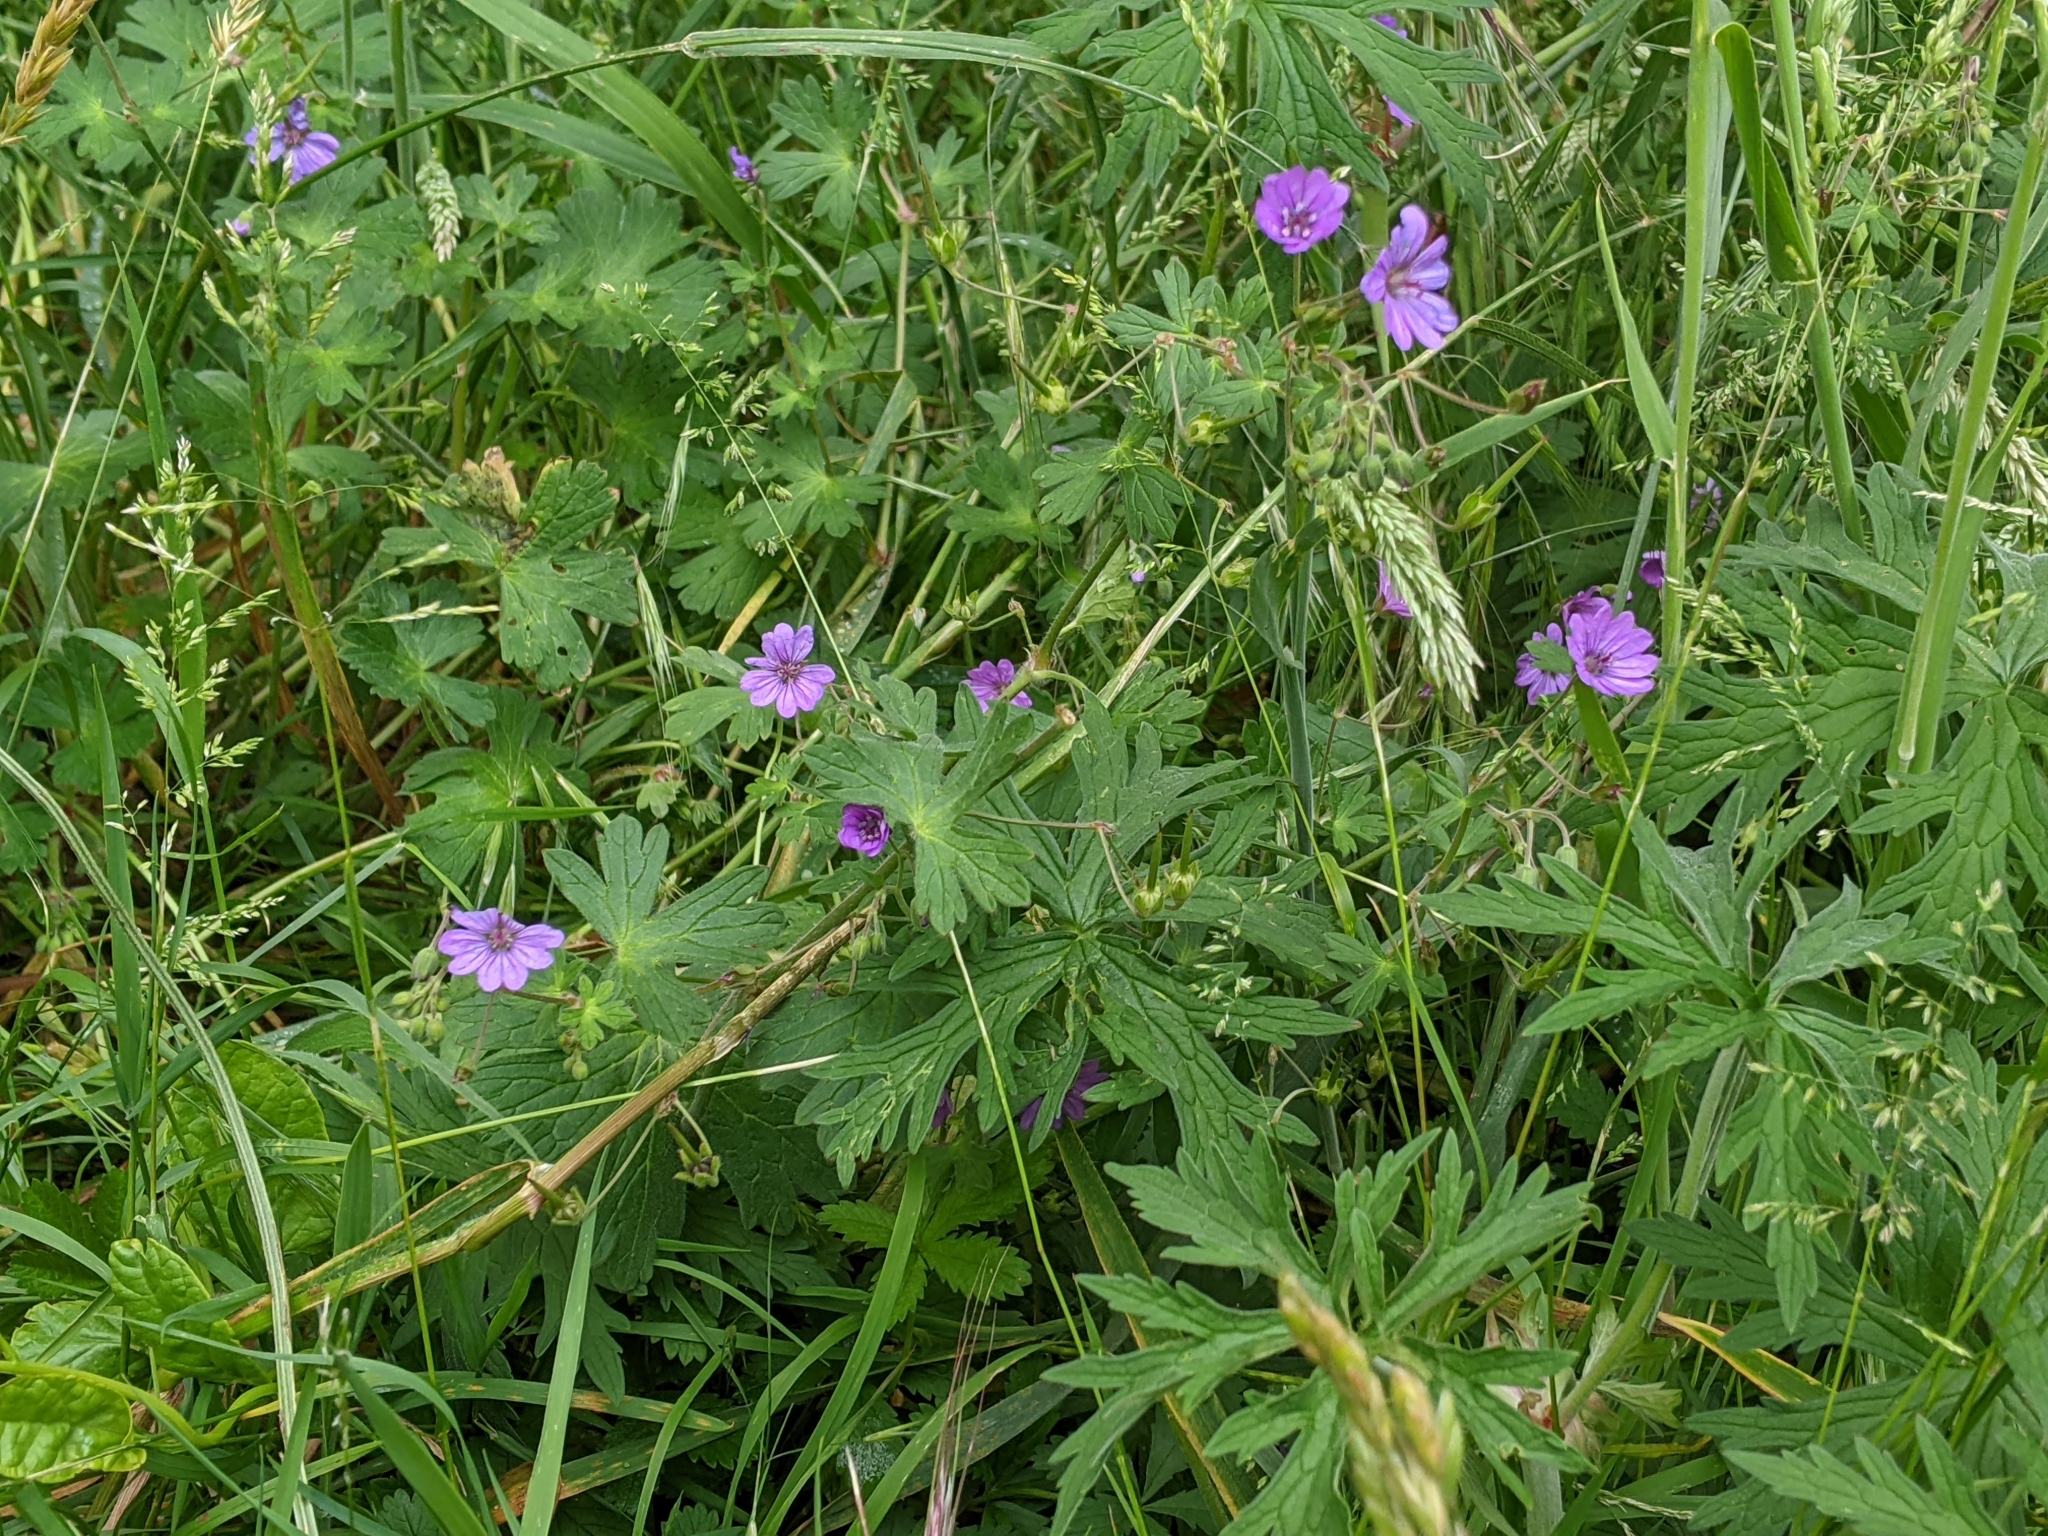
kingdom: Plantae
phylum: Tracheophyta
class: Magnoliopsida
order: Geraniales
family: Geraniaceae
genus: Geranium
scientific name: Geranium pyrenaicum
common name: Hedgerow crane's-bill
